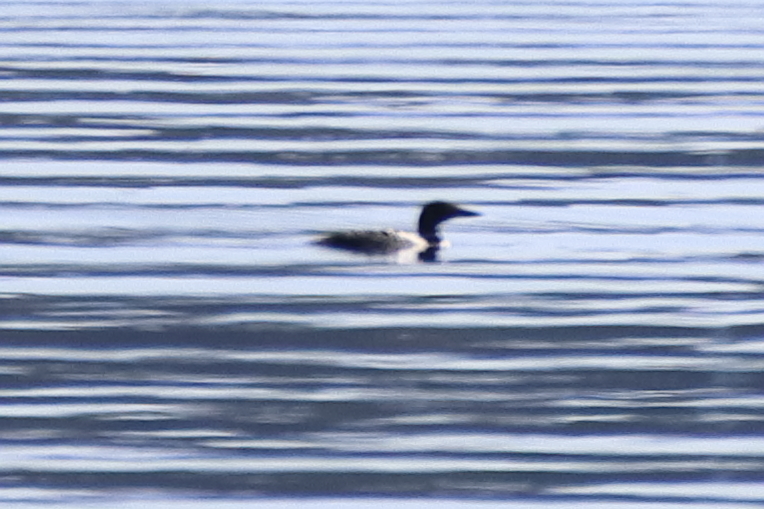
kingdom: Animalia
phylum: Chordata
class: Aves
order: Gaviiformes
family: Gaviidae
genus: Gavia
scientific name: Gavia immer
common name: Common loon
